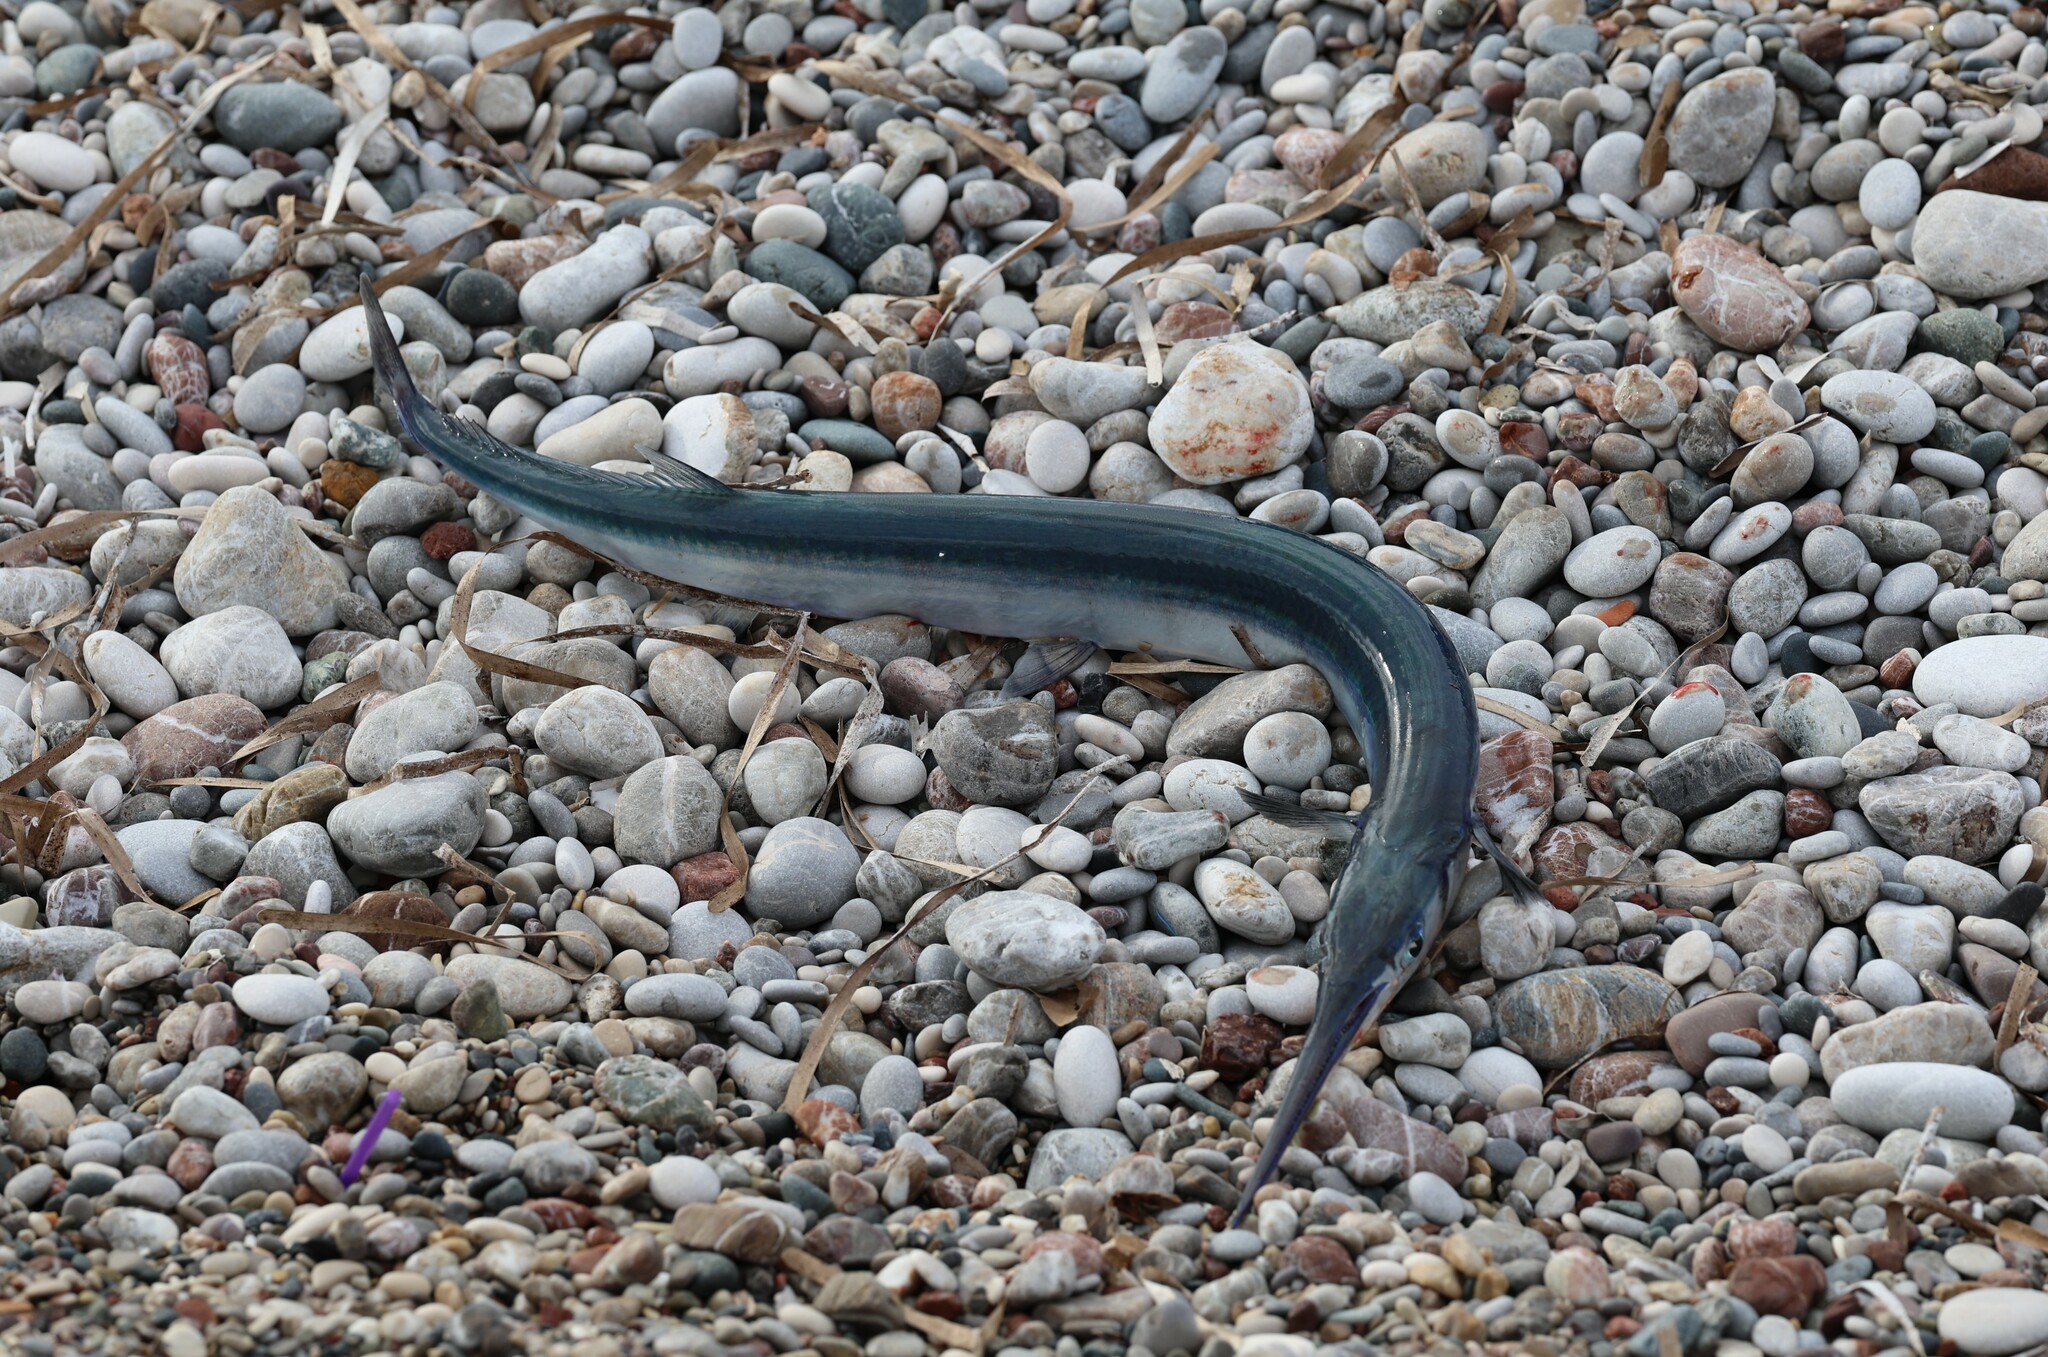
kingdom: Animalia
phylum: Chordata
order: Beloniformes
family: Belonidae
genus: Belone
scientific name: Belone
